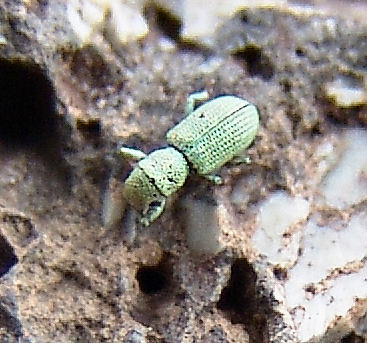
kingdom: Animalia
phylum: Arthropoda
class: Insecta
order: Coleoptera
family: Curculionidae
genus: Pandeleteinus
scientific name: Pandeleteinus submetallicus
